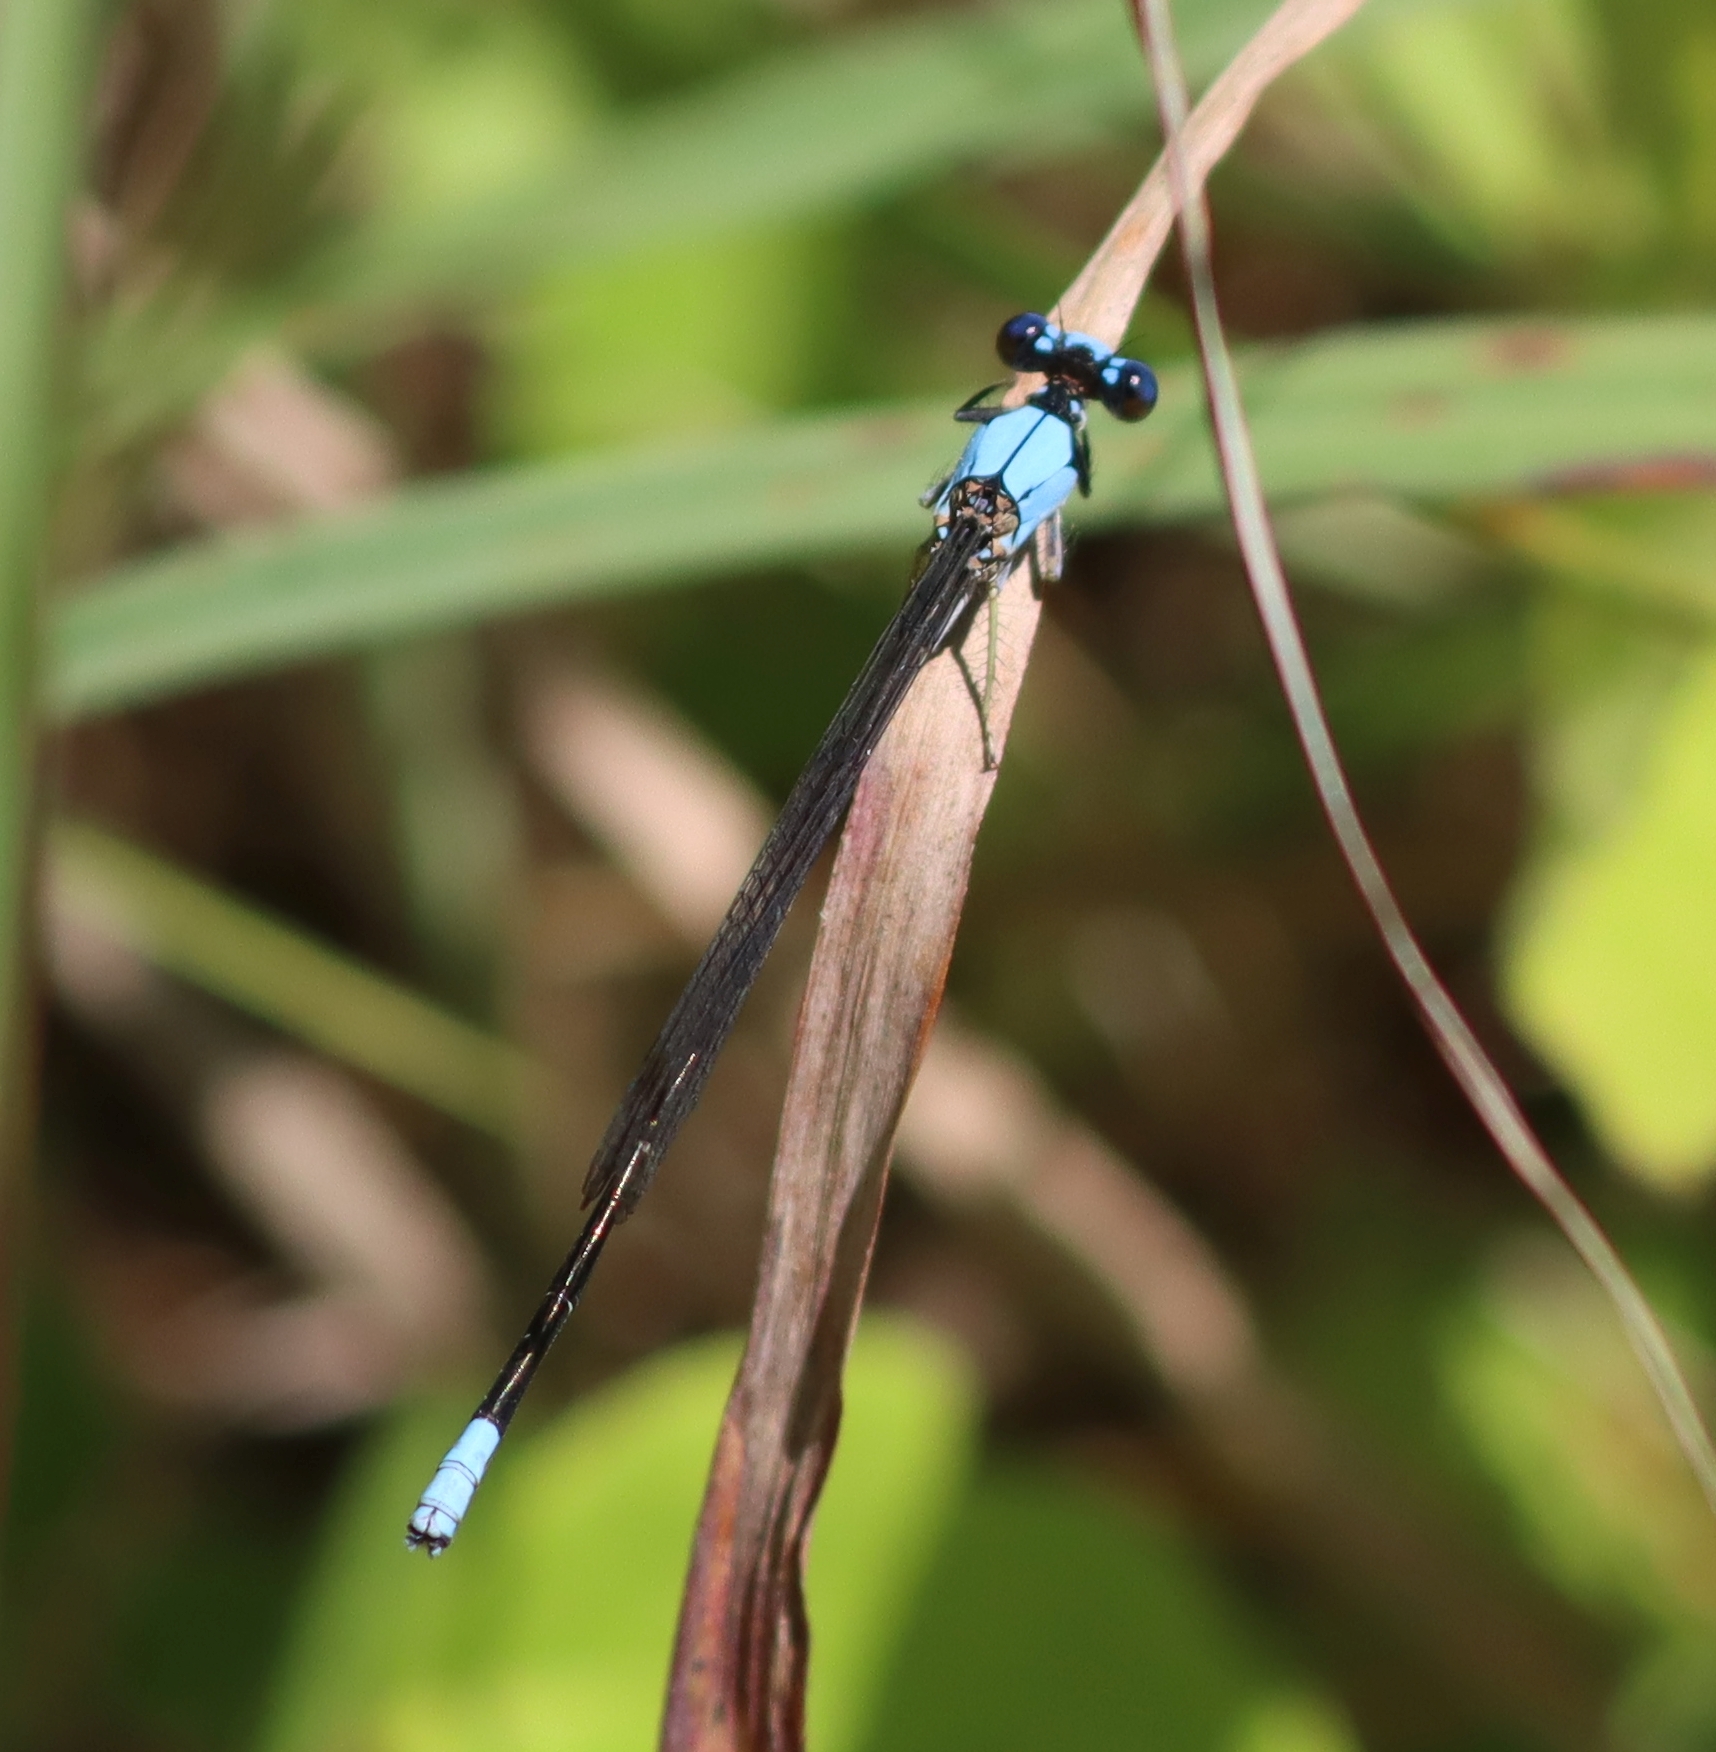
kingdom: Animalia
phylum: Arthropoda
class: Insecta
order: Odonata
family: Coenagrionidae
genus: Argia
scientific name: Argia apicalis
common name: Blue-fronted dancer
